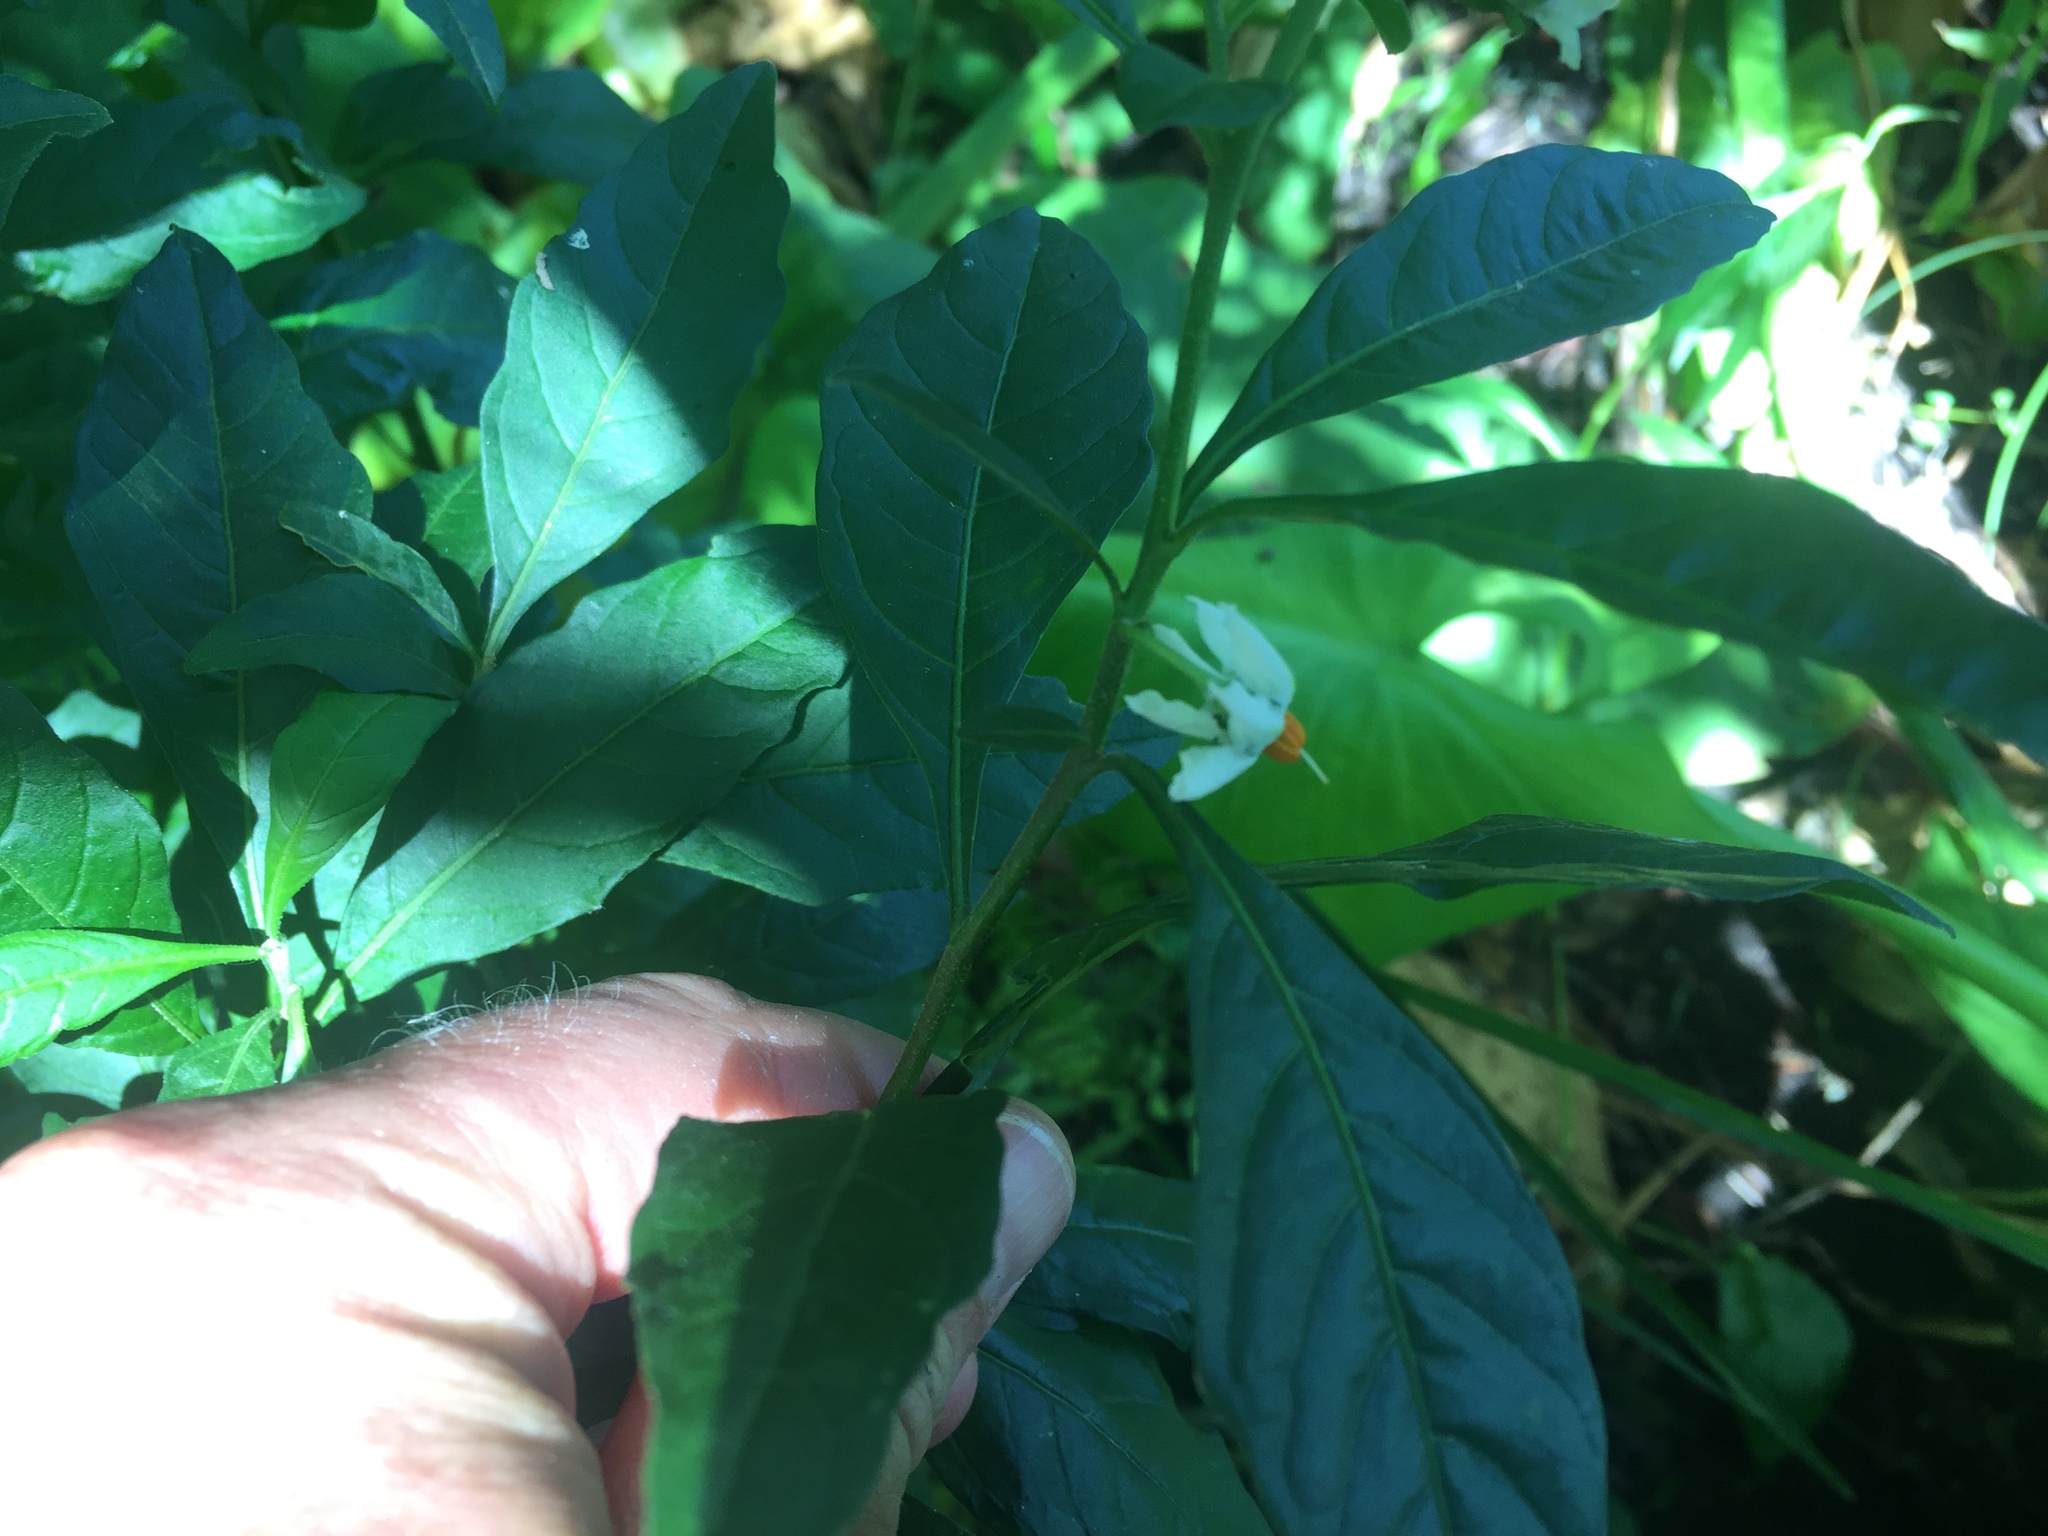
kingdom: Plantae
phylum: Tracheophyta
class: Magnoliopsida
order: Solanales
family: Solanaceae
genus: Solanum
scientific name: Solanum pseudocapsicum
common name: Jerusalem cherry
